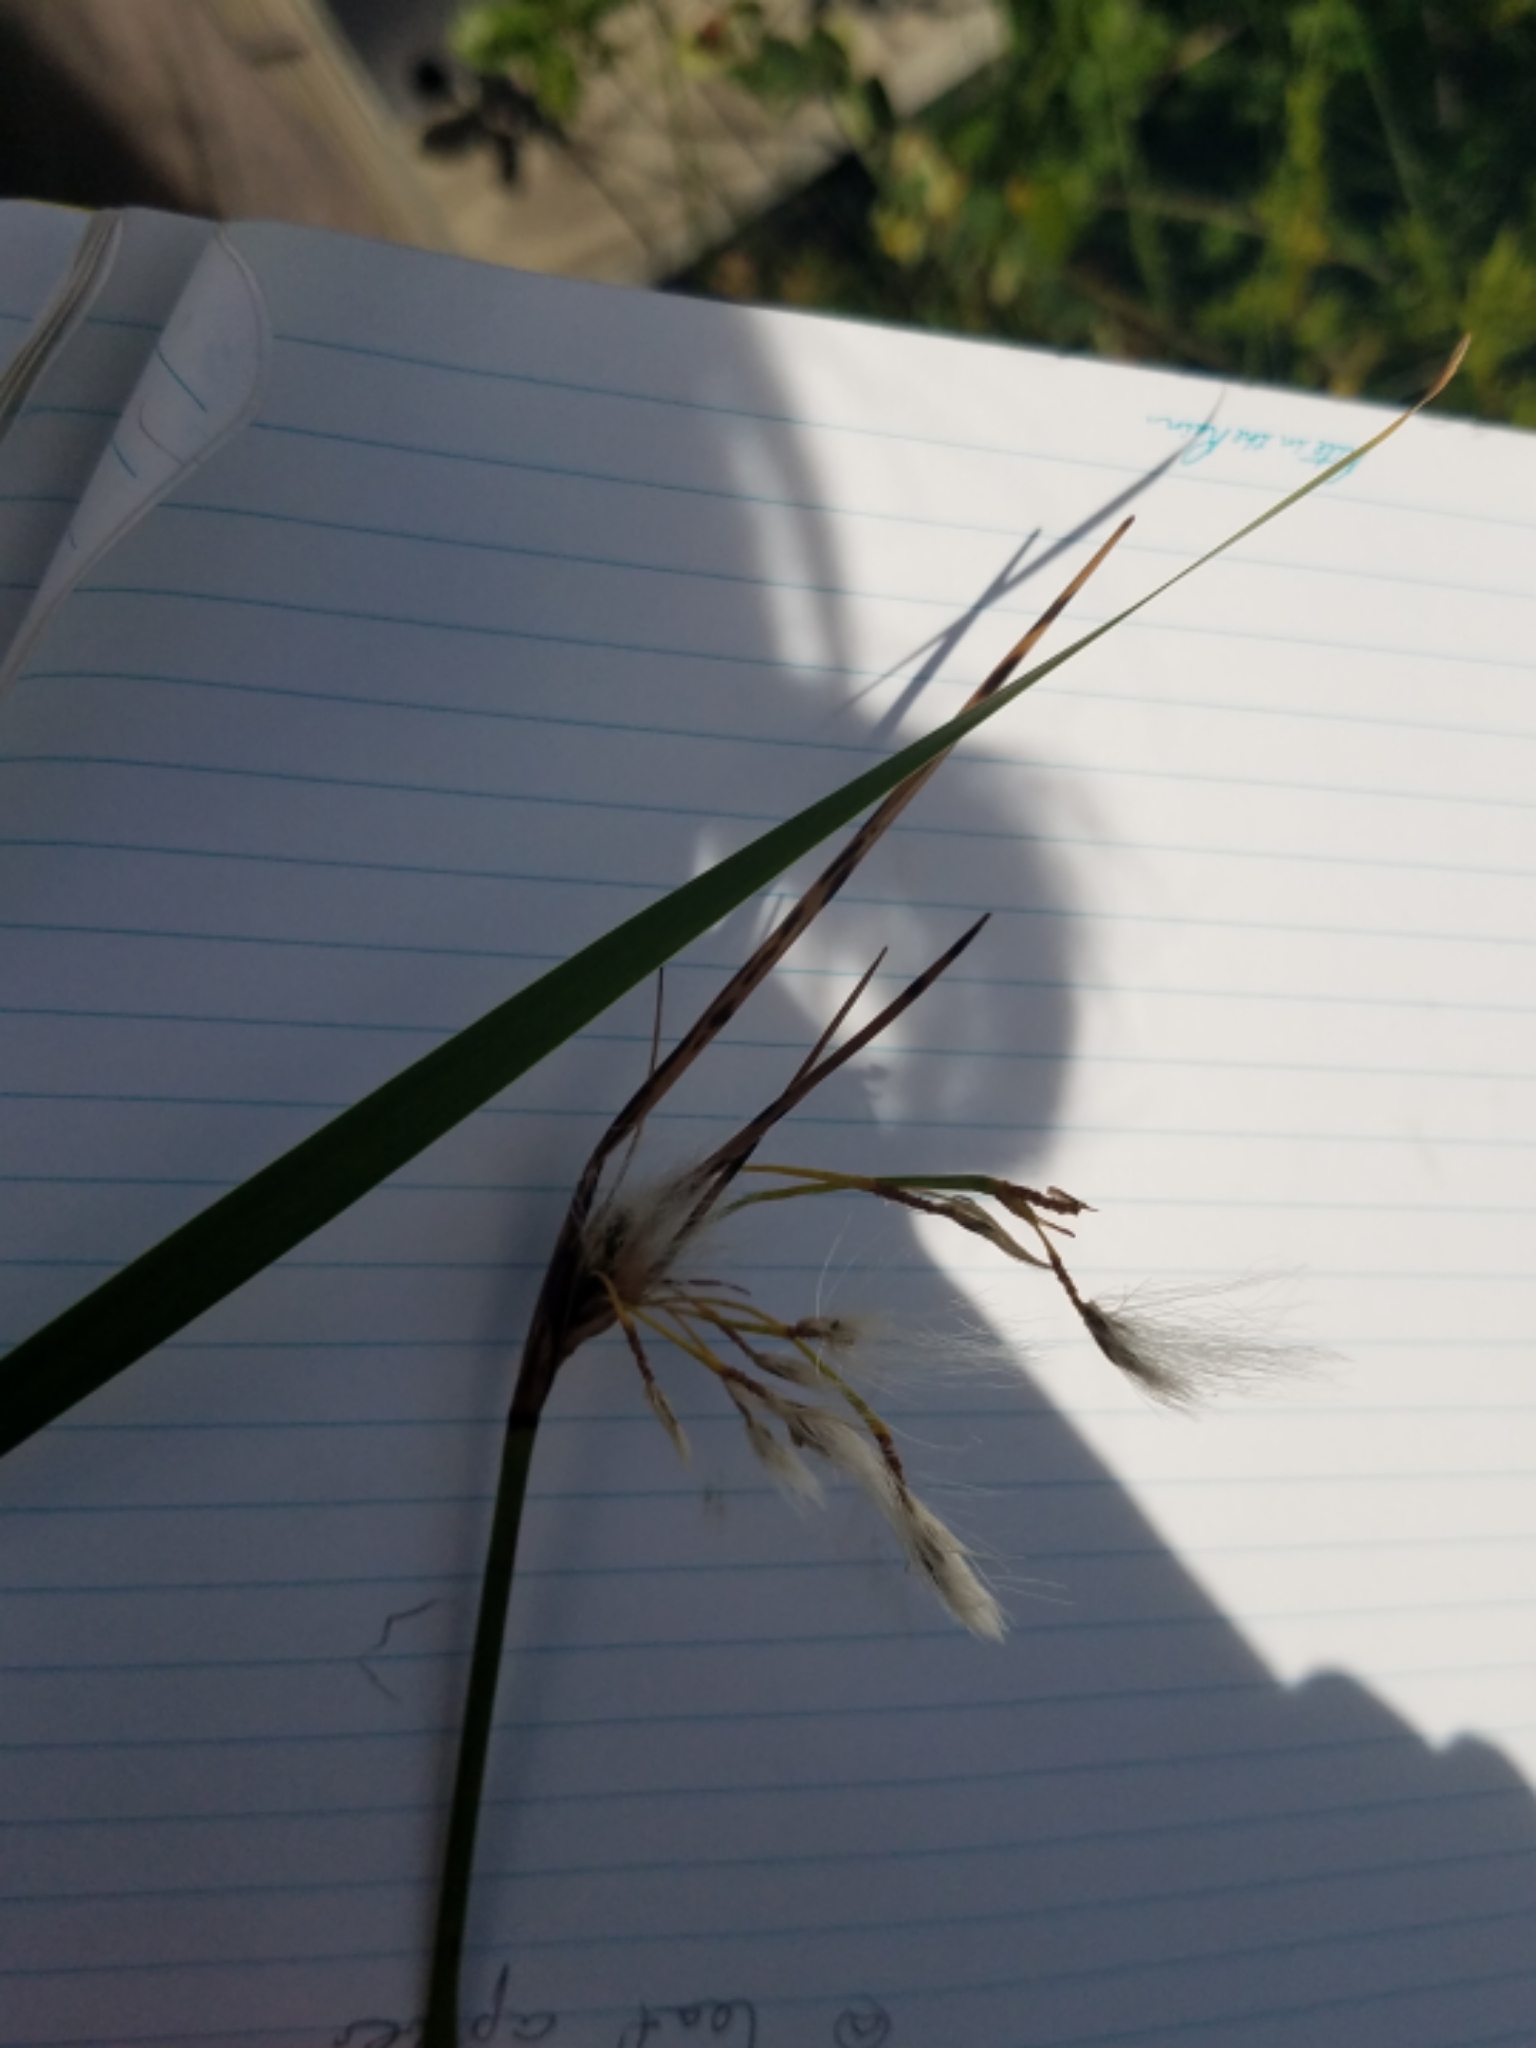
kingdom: Plantae
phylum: Tracheophyta
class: Liliopsida
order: Poales
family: Cyperaceae
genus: Eriophorum
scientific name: Eriophorum viridicarinatum
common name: Green-keeled cottongrass
